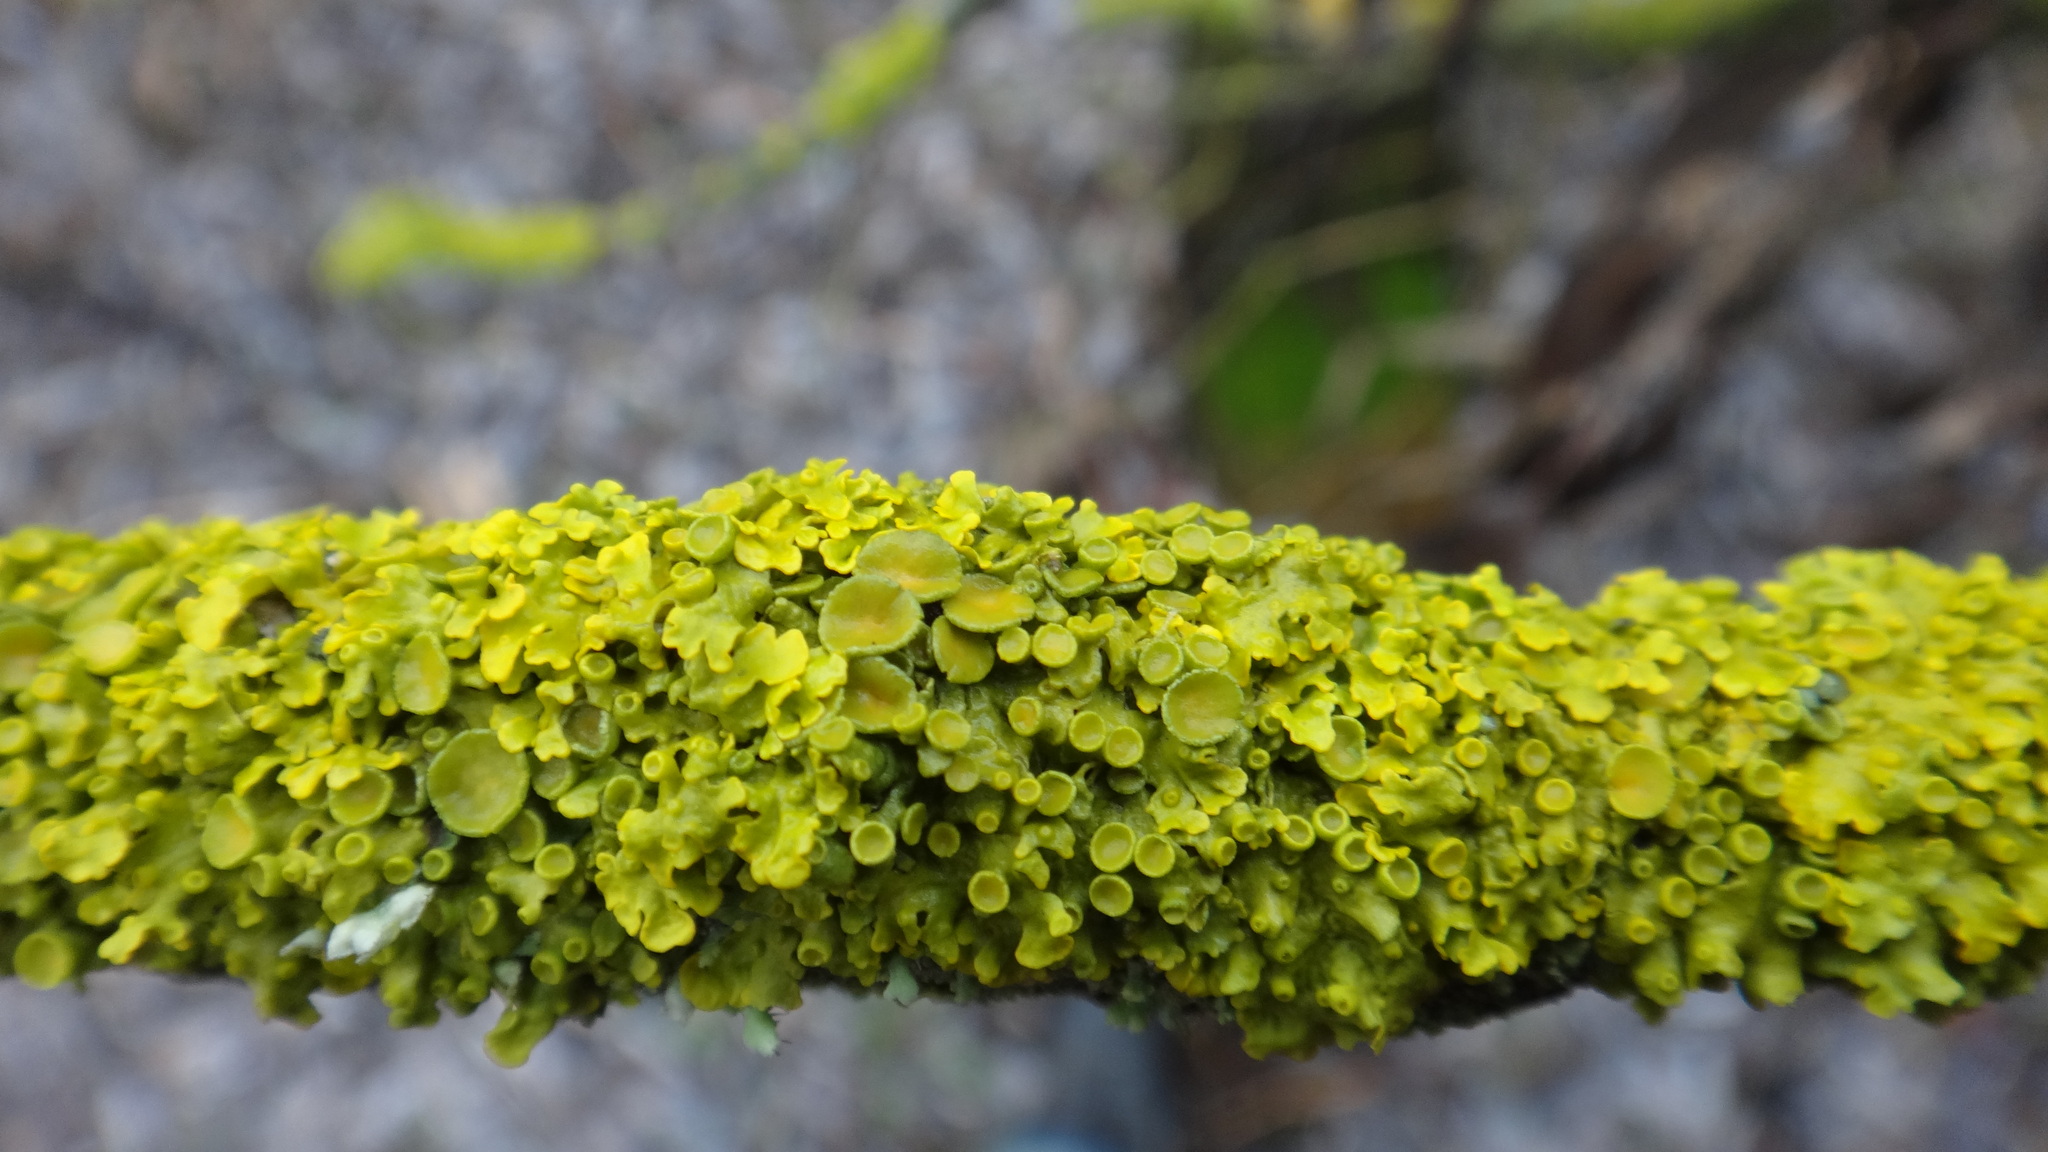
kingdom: Fungi
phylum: Ascomycota
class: Lecanoromycetes
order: Teloschistales
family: Teloschistaceae
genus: Xanthoria
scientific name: Xanthoria parietina
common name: Common orange lichen
